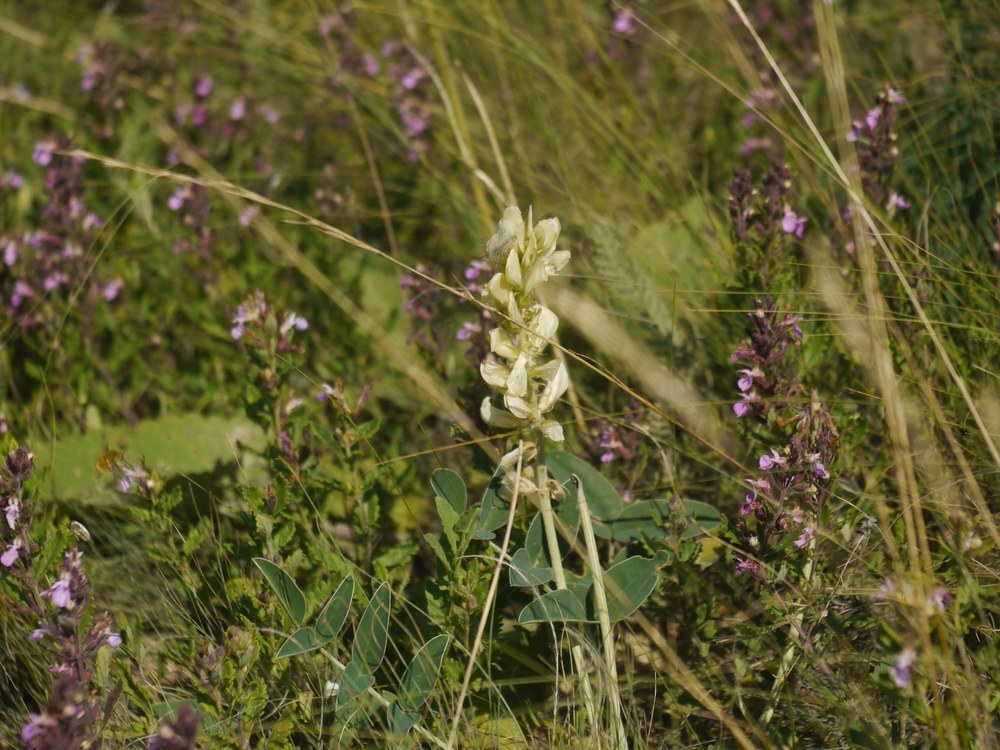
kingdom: Plantae
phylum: Tracheophyta
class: Magnoliopsida
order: Fabales
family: Fabaceae
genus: Hedysarum
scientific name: Hedysarum grandiflorum
